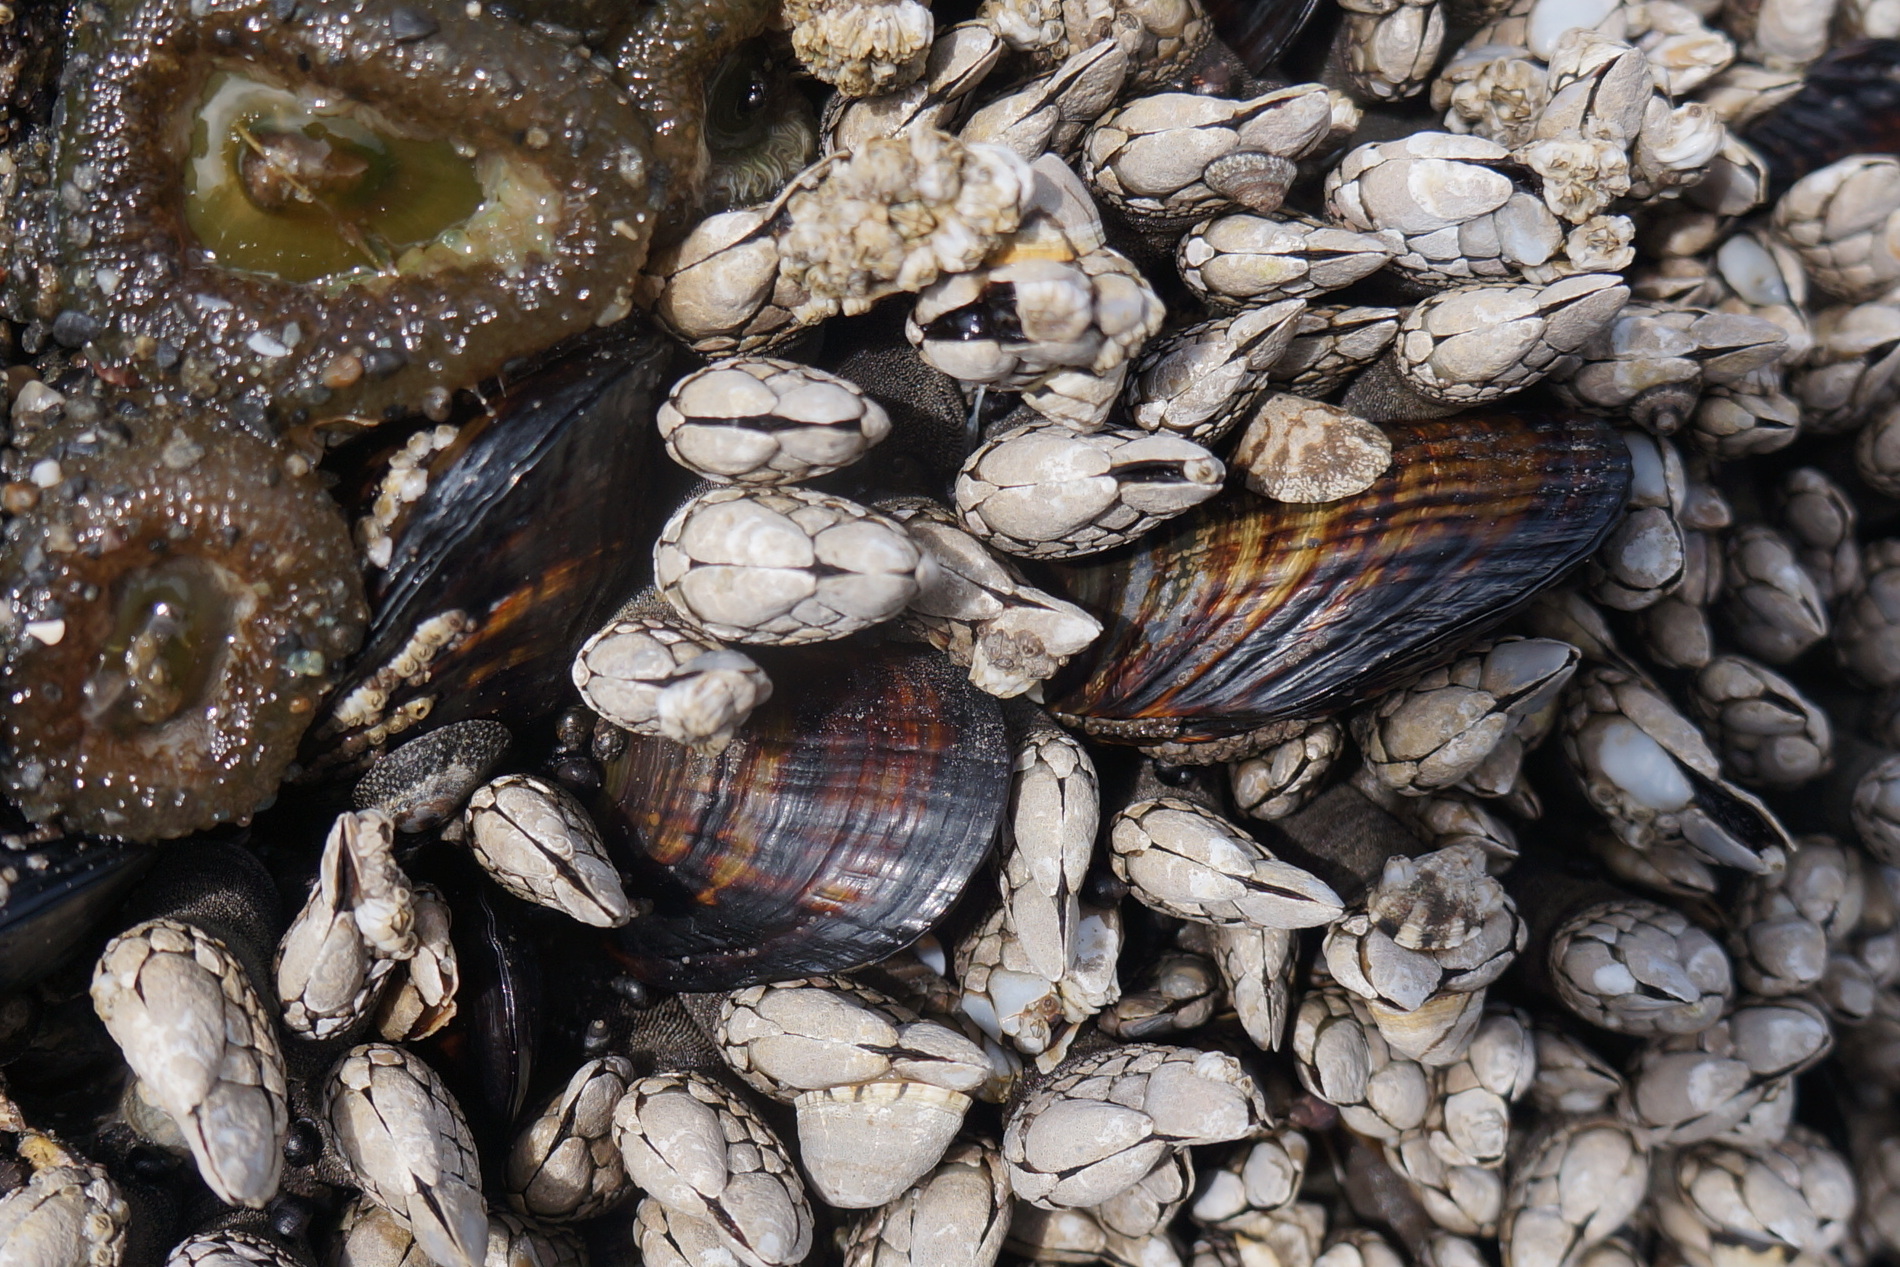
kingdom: Animalia
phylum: Mollusca
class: Bivalvia
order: Mytilida
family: Mytilidae
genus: Mytilus
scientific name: Mytilus californianus
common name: California mussel
